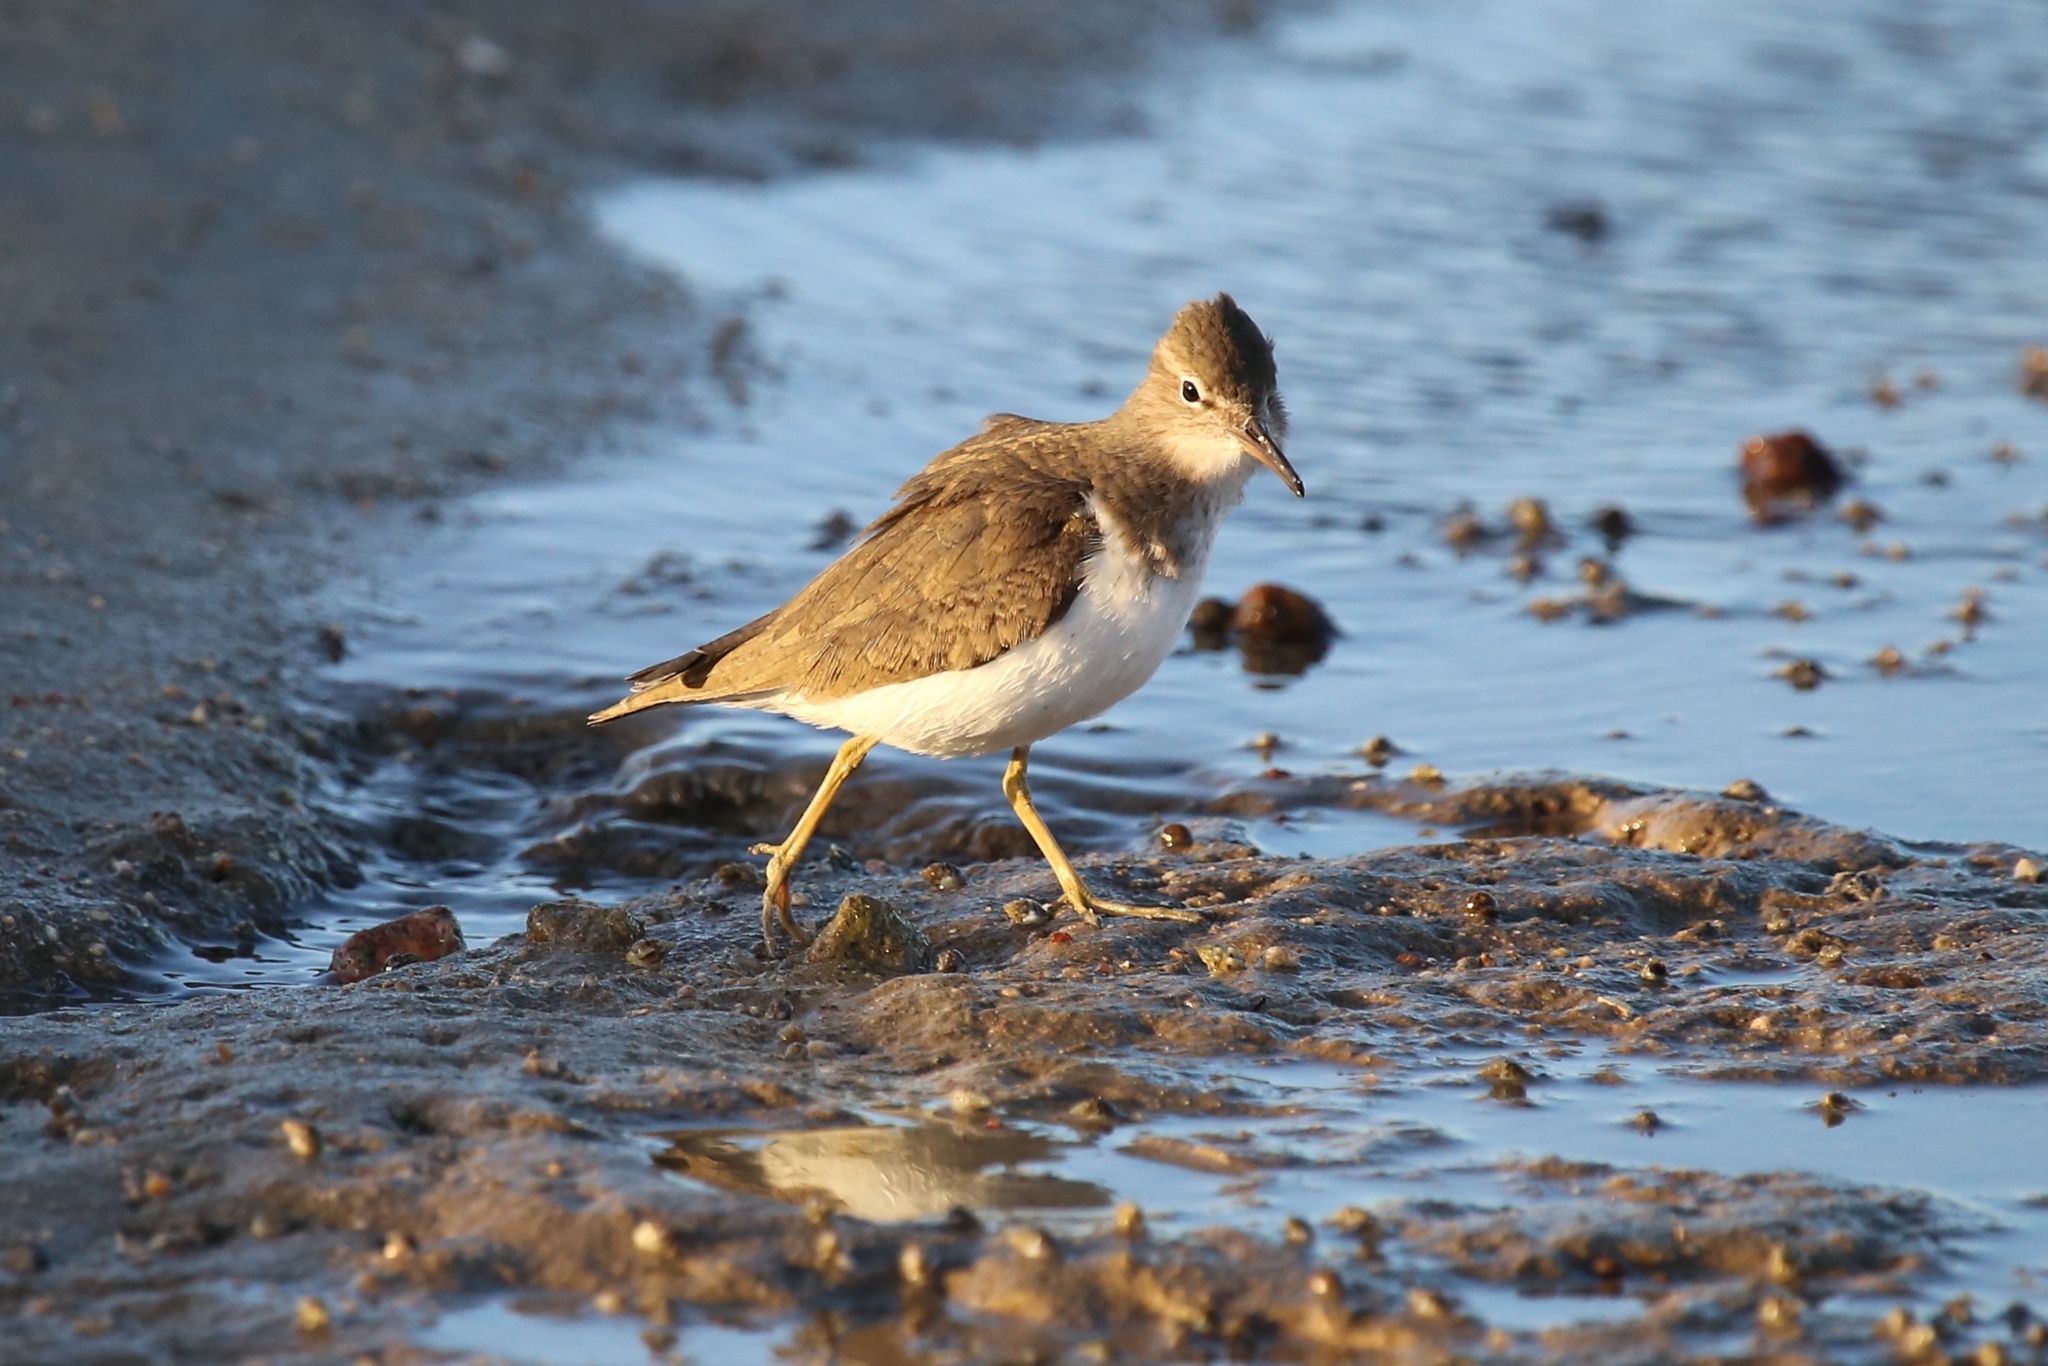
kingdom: Animalia
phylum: Chordata
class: Aves
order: Charadriiformes
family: Scolopacidae
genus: Actitis
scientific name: Actitis macularius
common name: Spotted sandpiper
